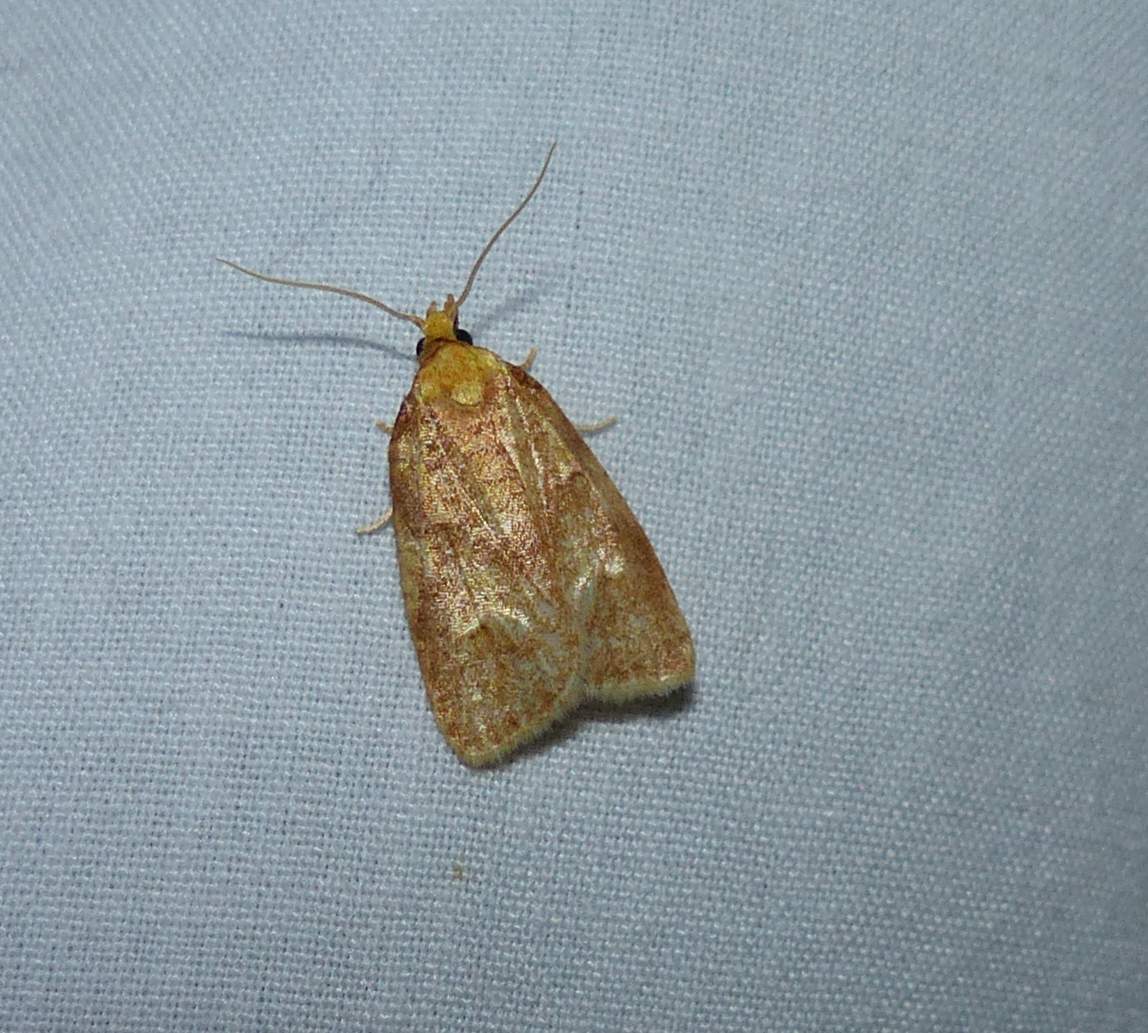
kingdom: Animalia
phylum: Arthropoda
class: Insecta
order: Lepidoptera
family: Tortricidae
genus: Cenopis
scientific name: Cenopis pettitana
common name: Maple-basswood leafroller moth
